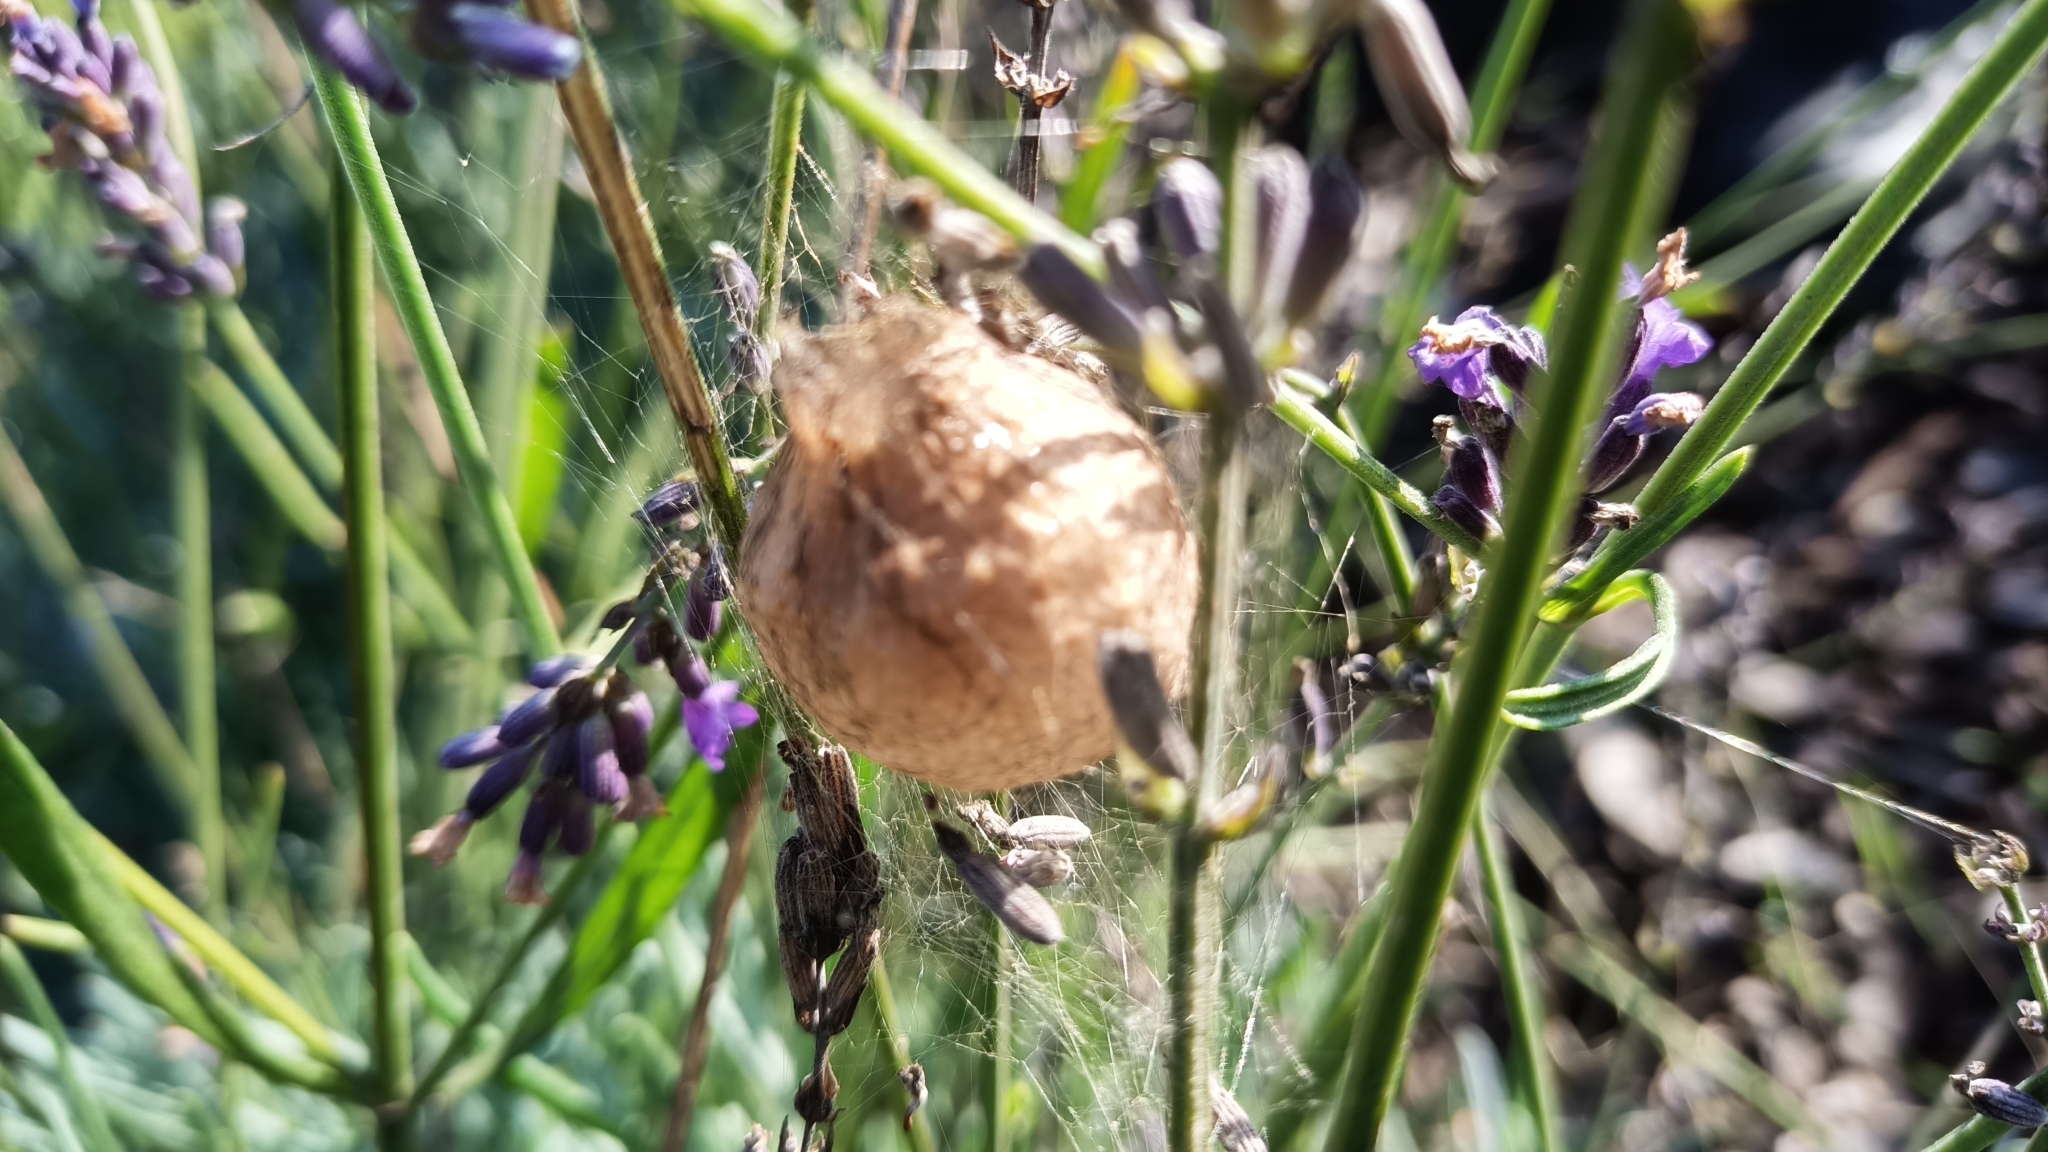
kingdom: Animalia
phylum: Arthropoda
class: Arachnida
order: Araneae
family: Araneidae
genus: Argiope
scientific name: Argiope bruennichi
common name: Wasp spider
